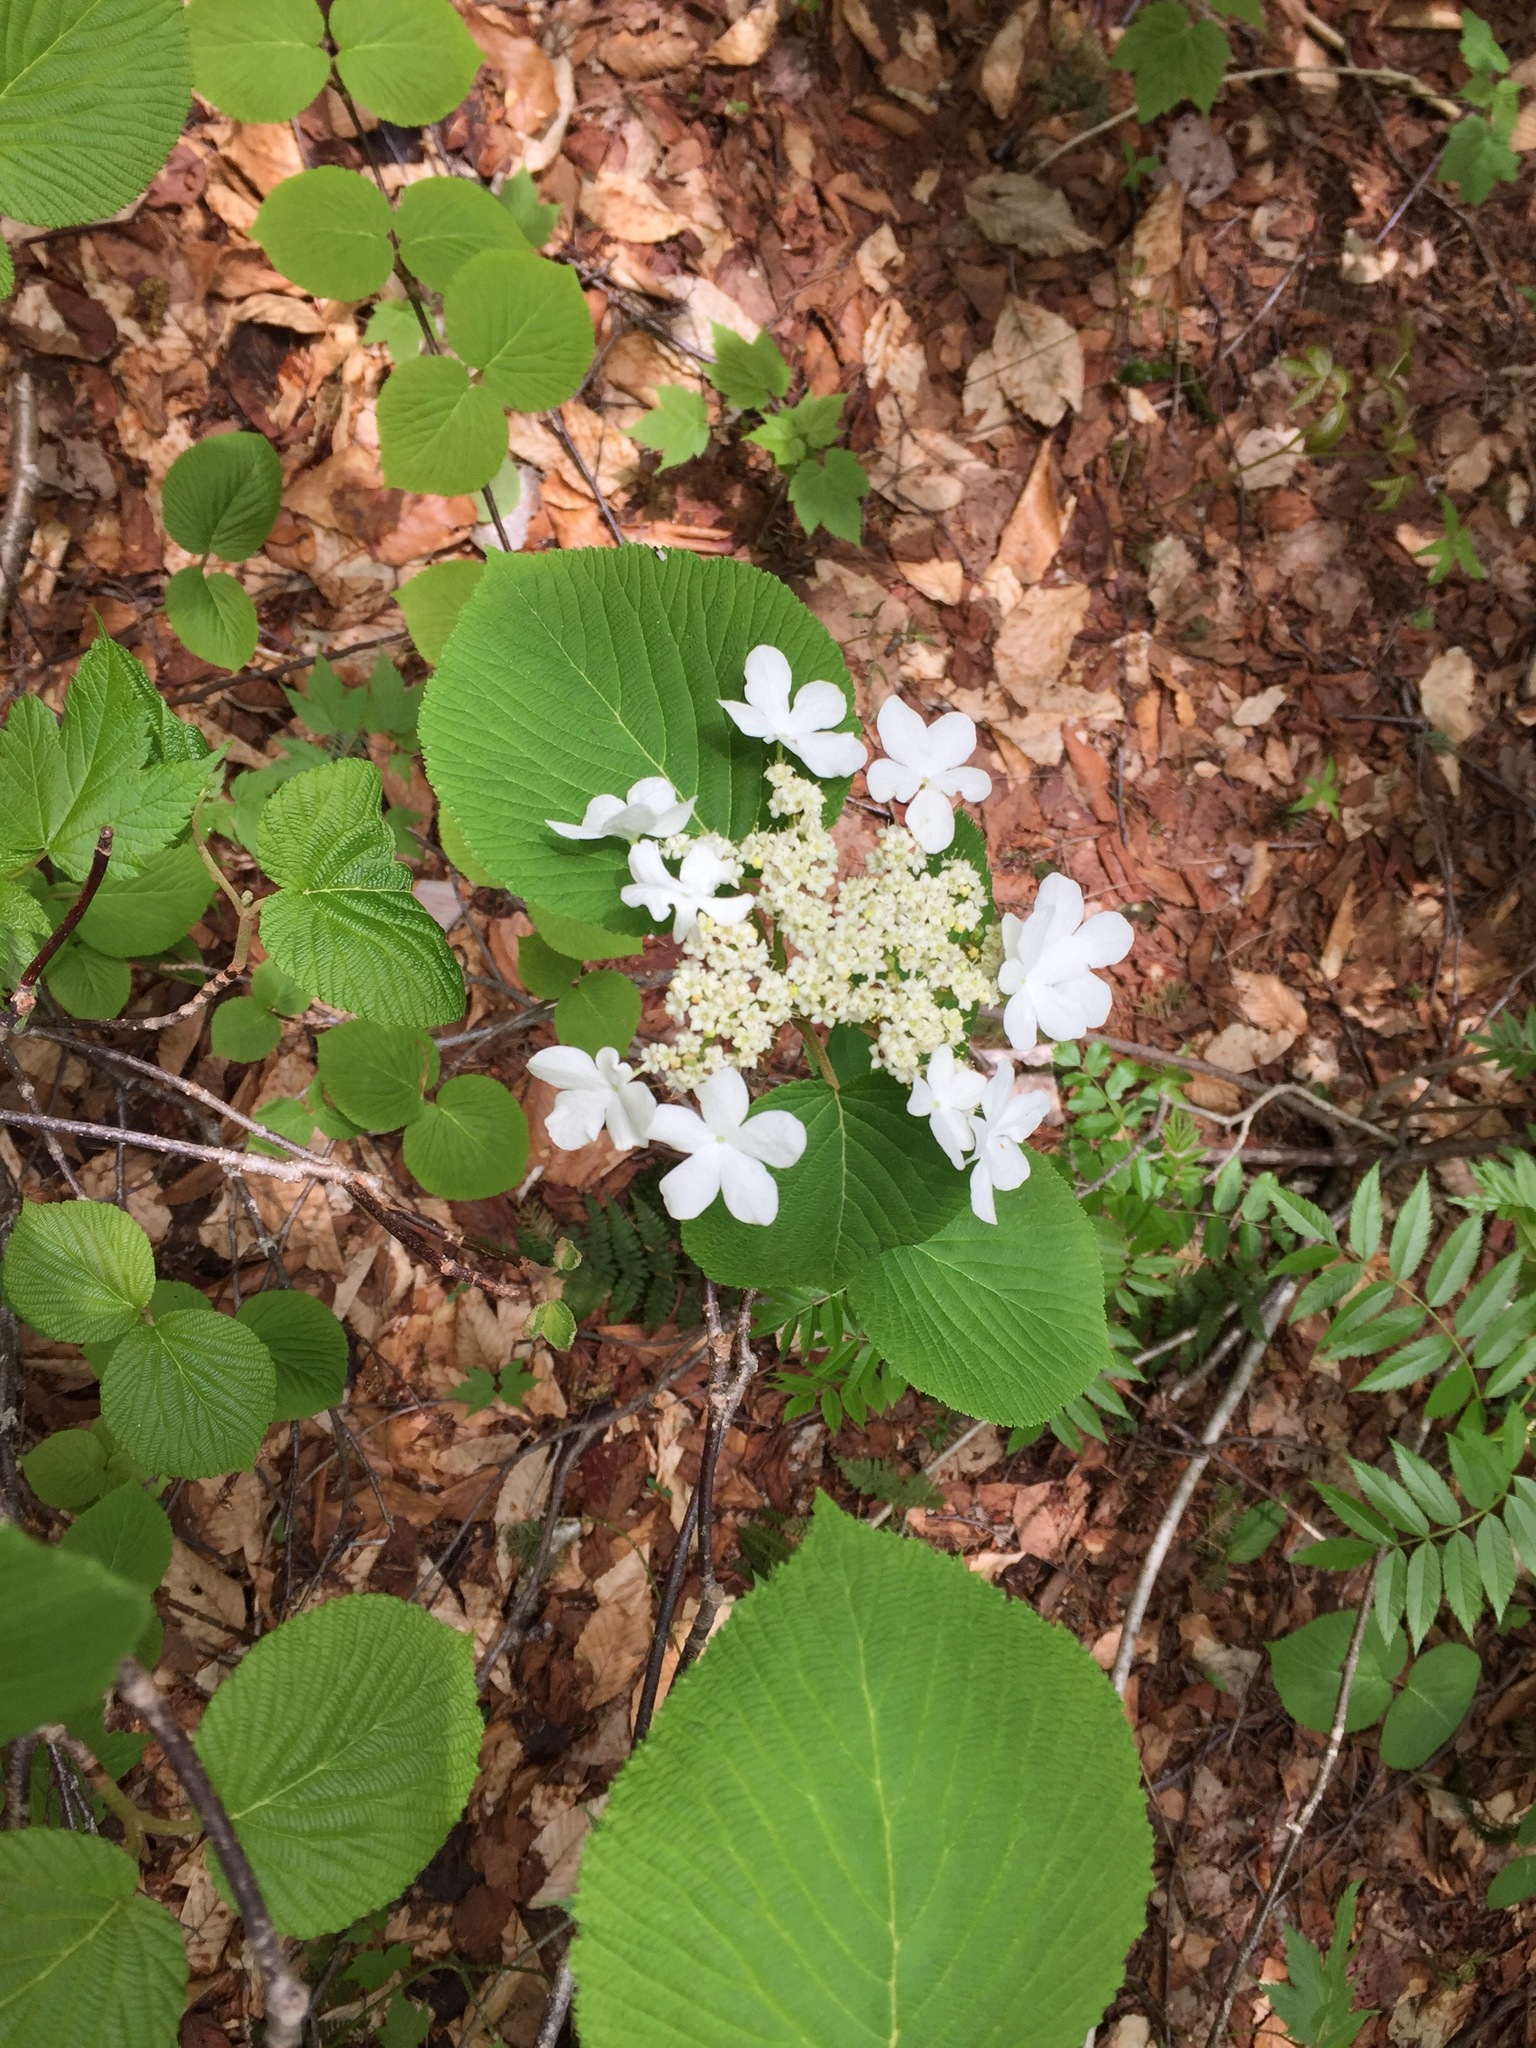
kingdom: Plantae
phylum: Tracheophyta
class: Magnoliopsida
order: Dipsacales
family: Viburnaceae
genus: Viburnum
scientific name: Viburnum lantanoides
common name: Hobblebush
